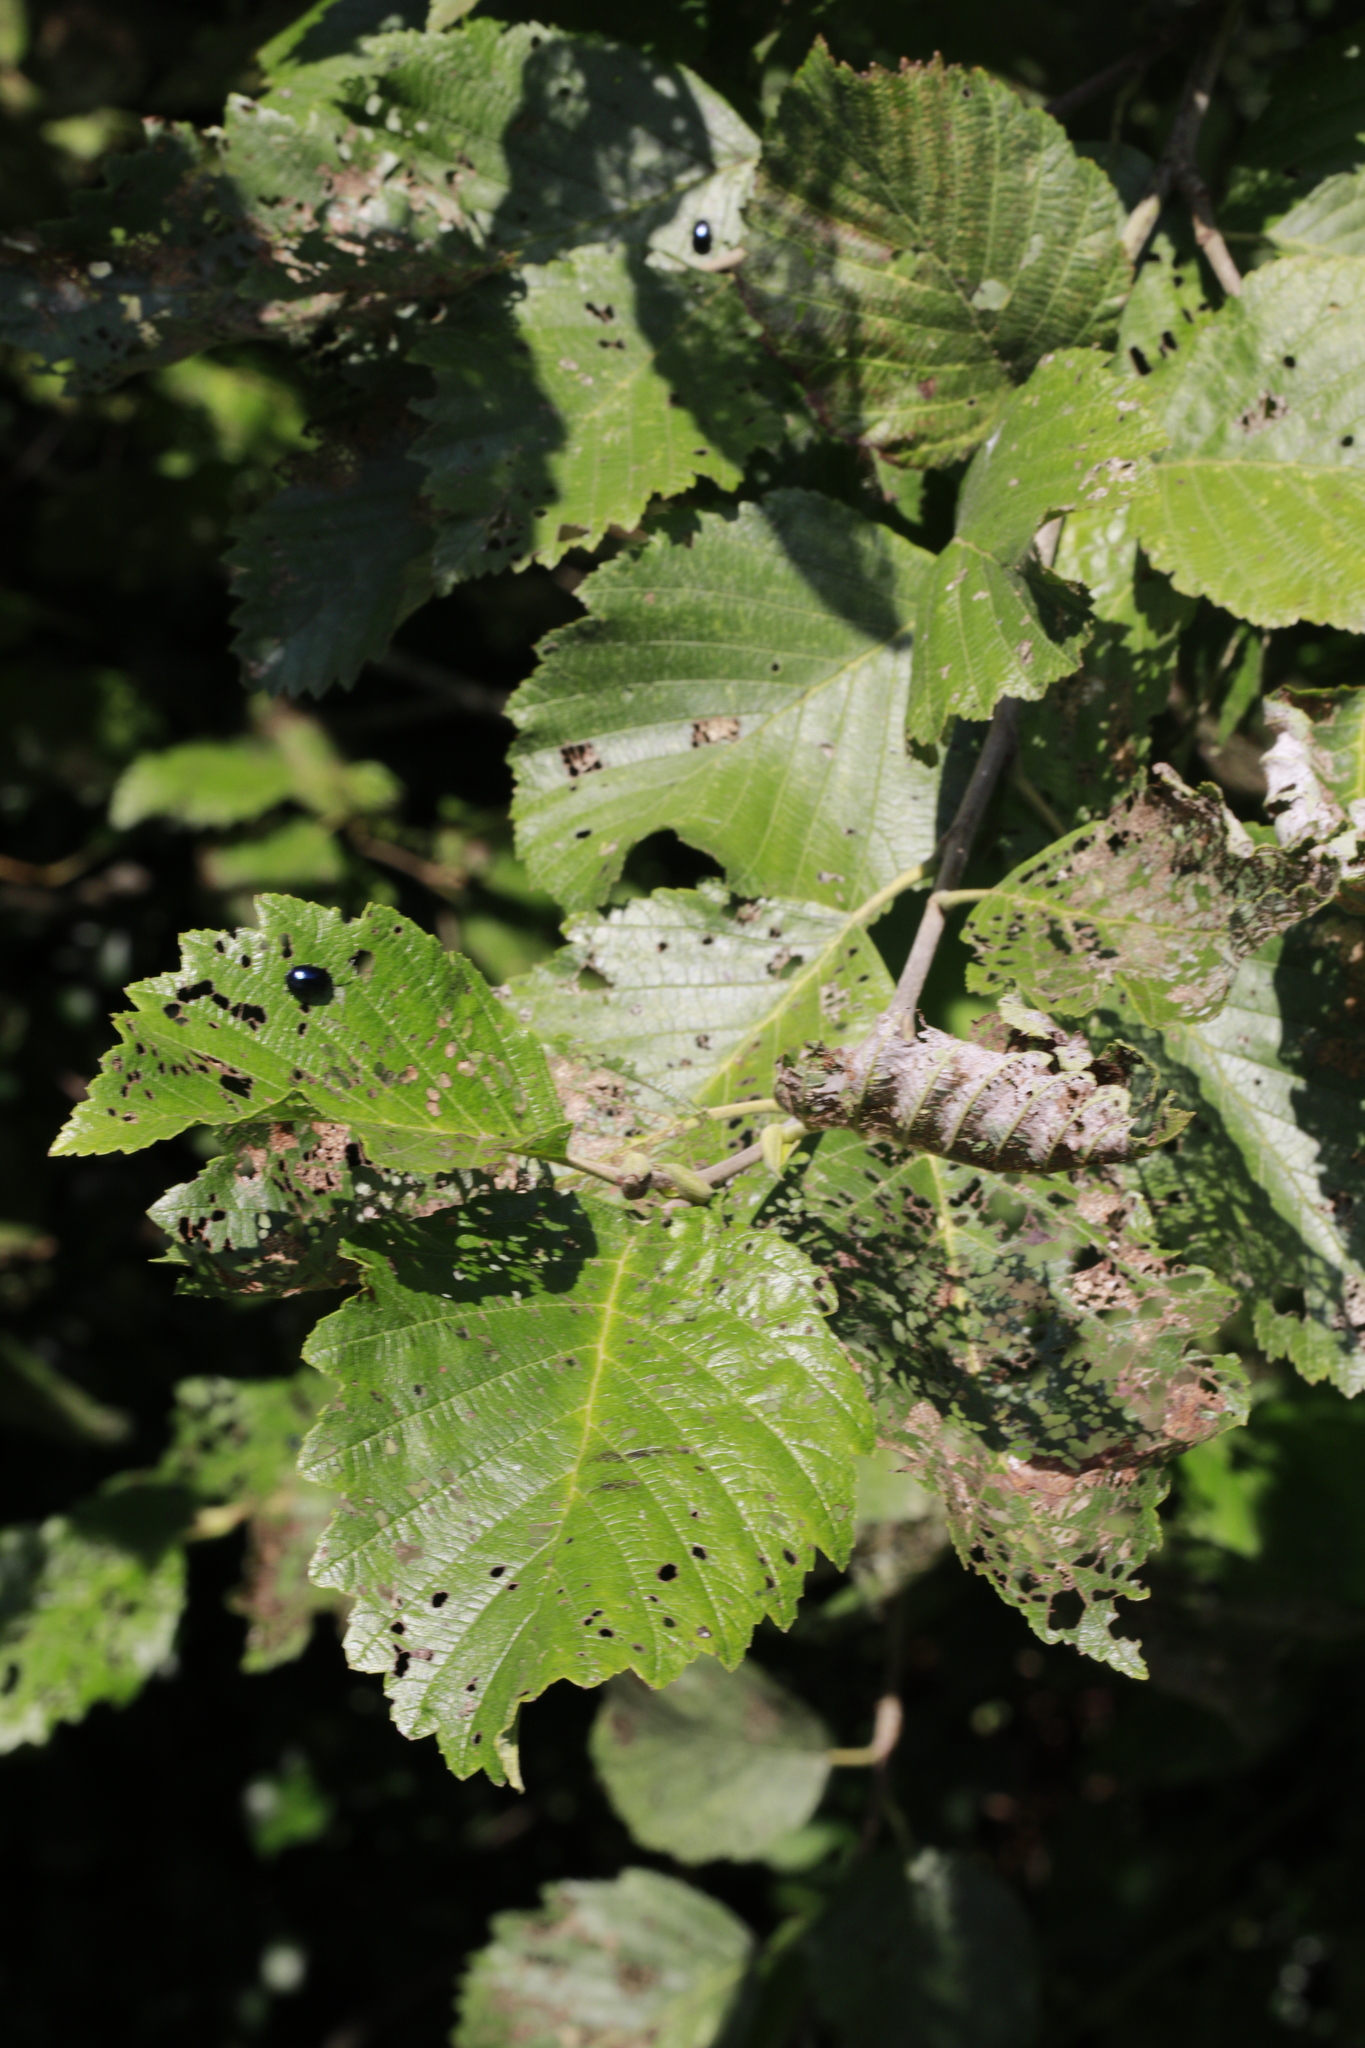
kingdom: Plantae
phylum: Tracheophyta
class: Magnoliopsida
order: Fagales
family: Betulaceae
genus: Alnus
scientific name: Alnus incana
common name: Grey alder
